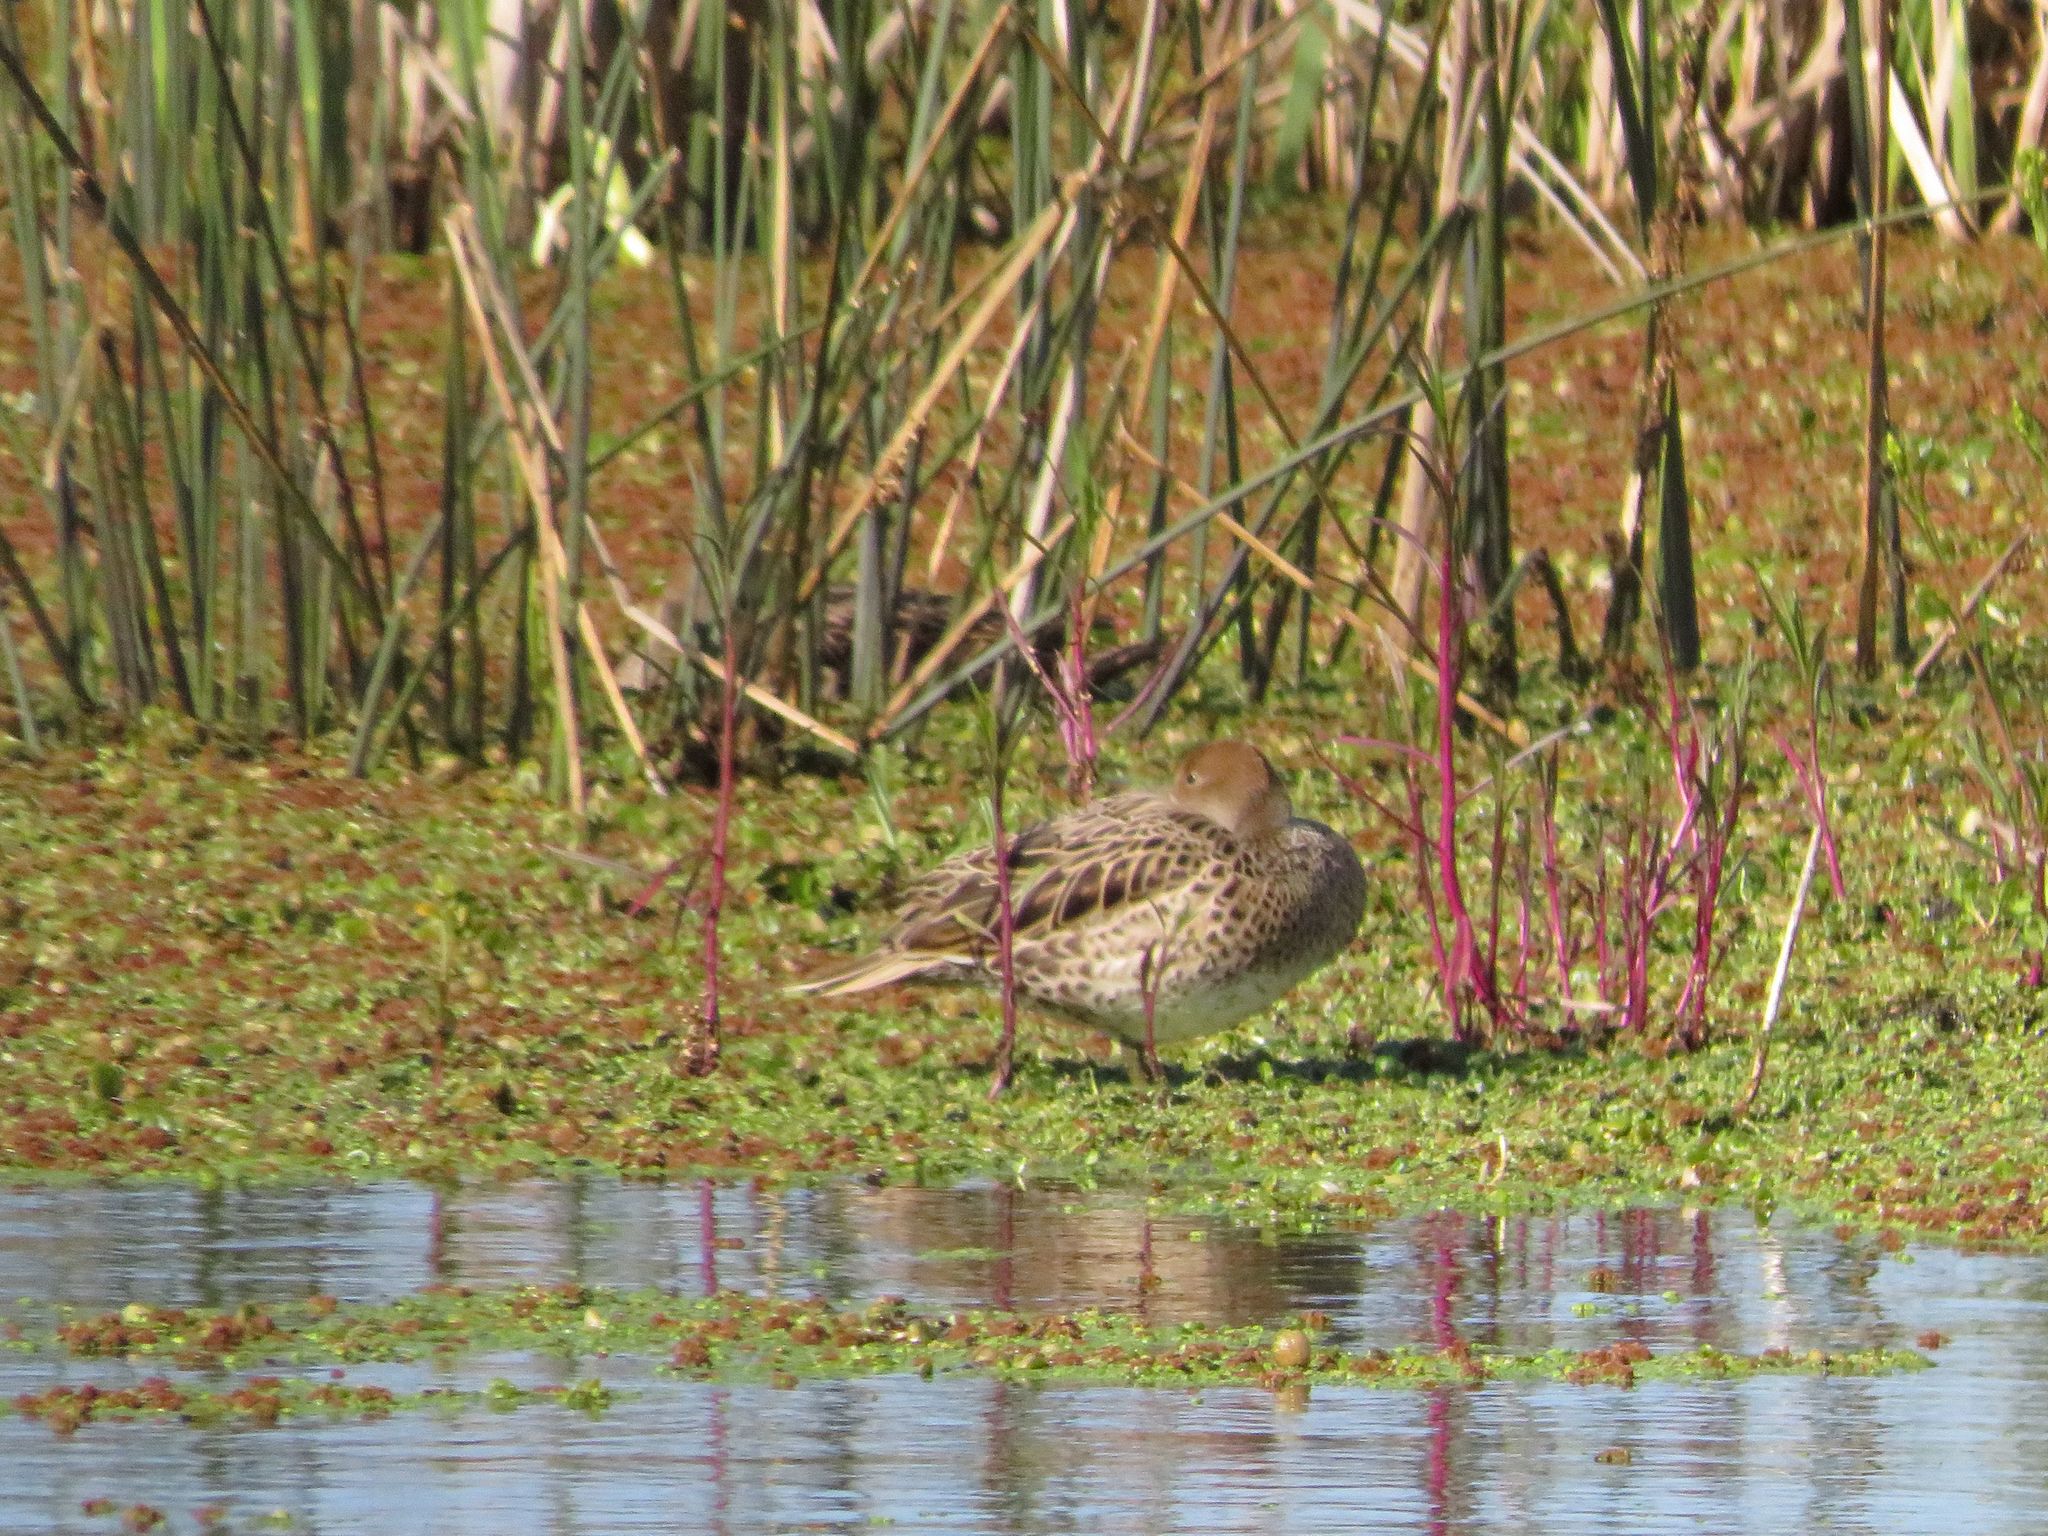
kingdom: Animalia
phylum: Chordata
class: Aves
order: Anseriformes
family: Anatidae
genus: Anas
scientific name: Anas georgica
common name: Yellow-billed pintail
